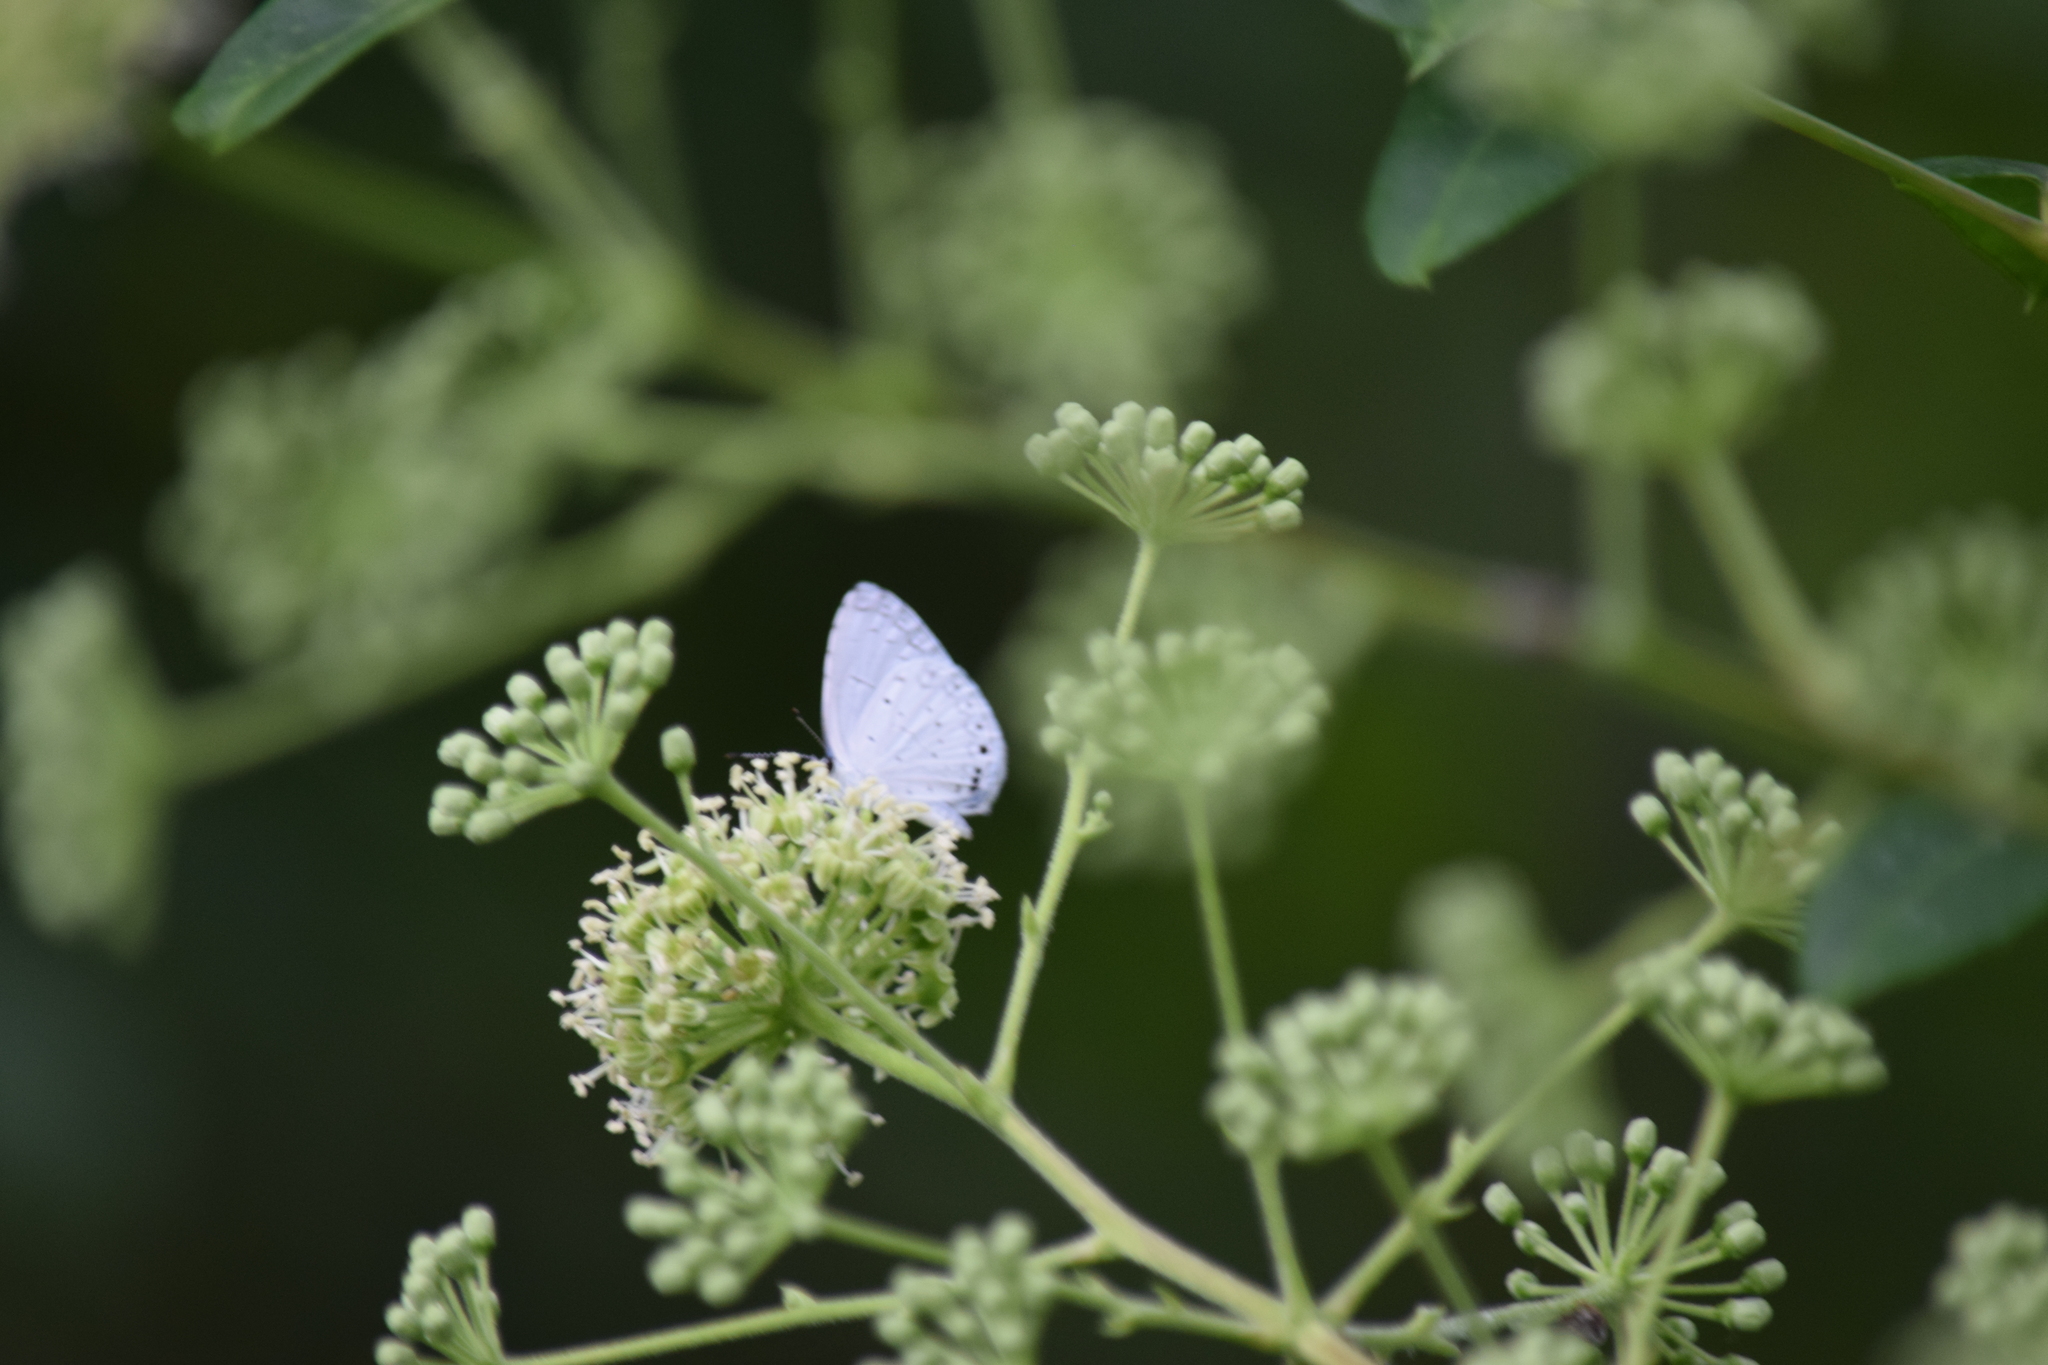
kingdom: Animalia
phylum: Arthropoda
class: Insecta
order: Lepidoptera
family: Lycaenidae
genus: Cyaniris
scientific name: Cyaniris neglecta
